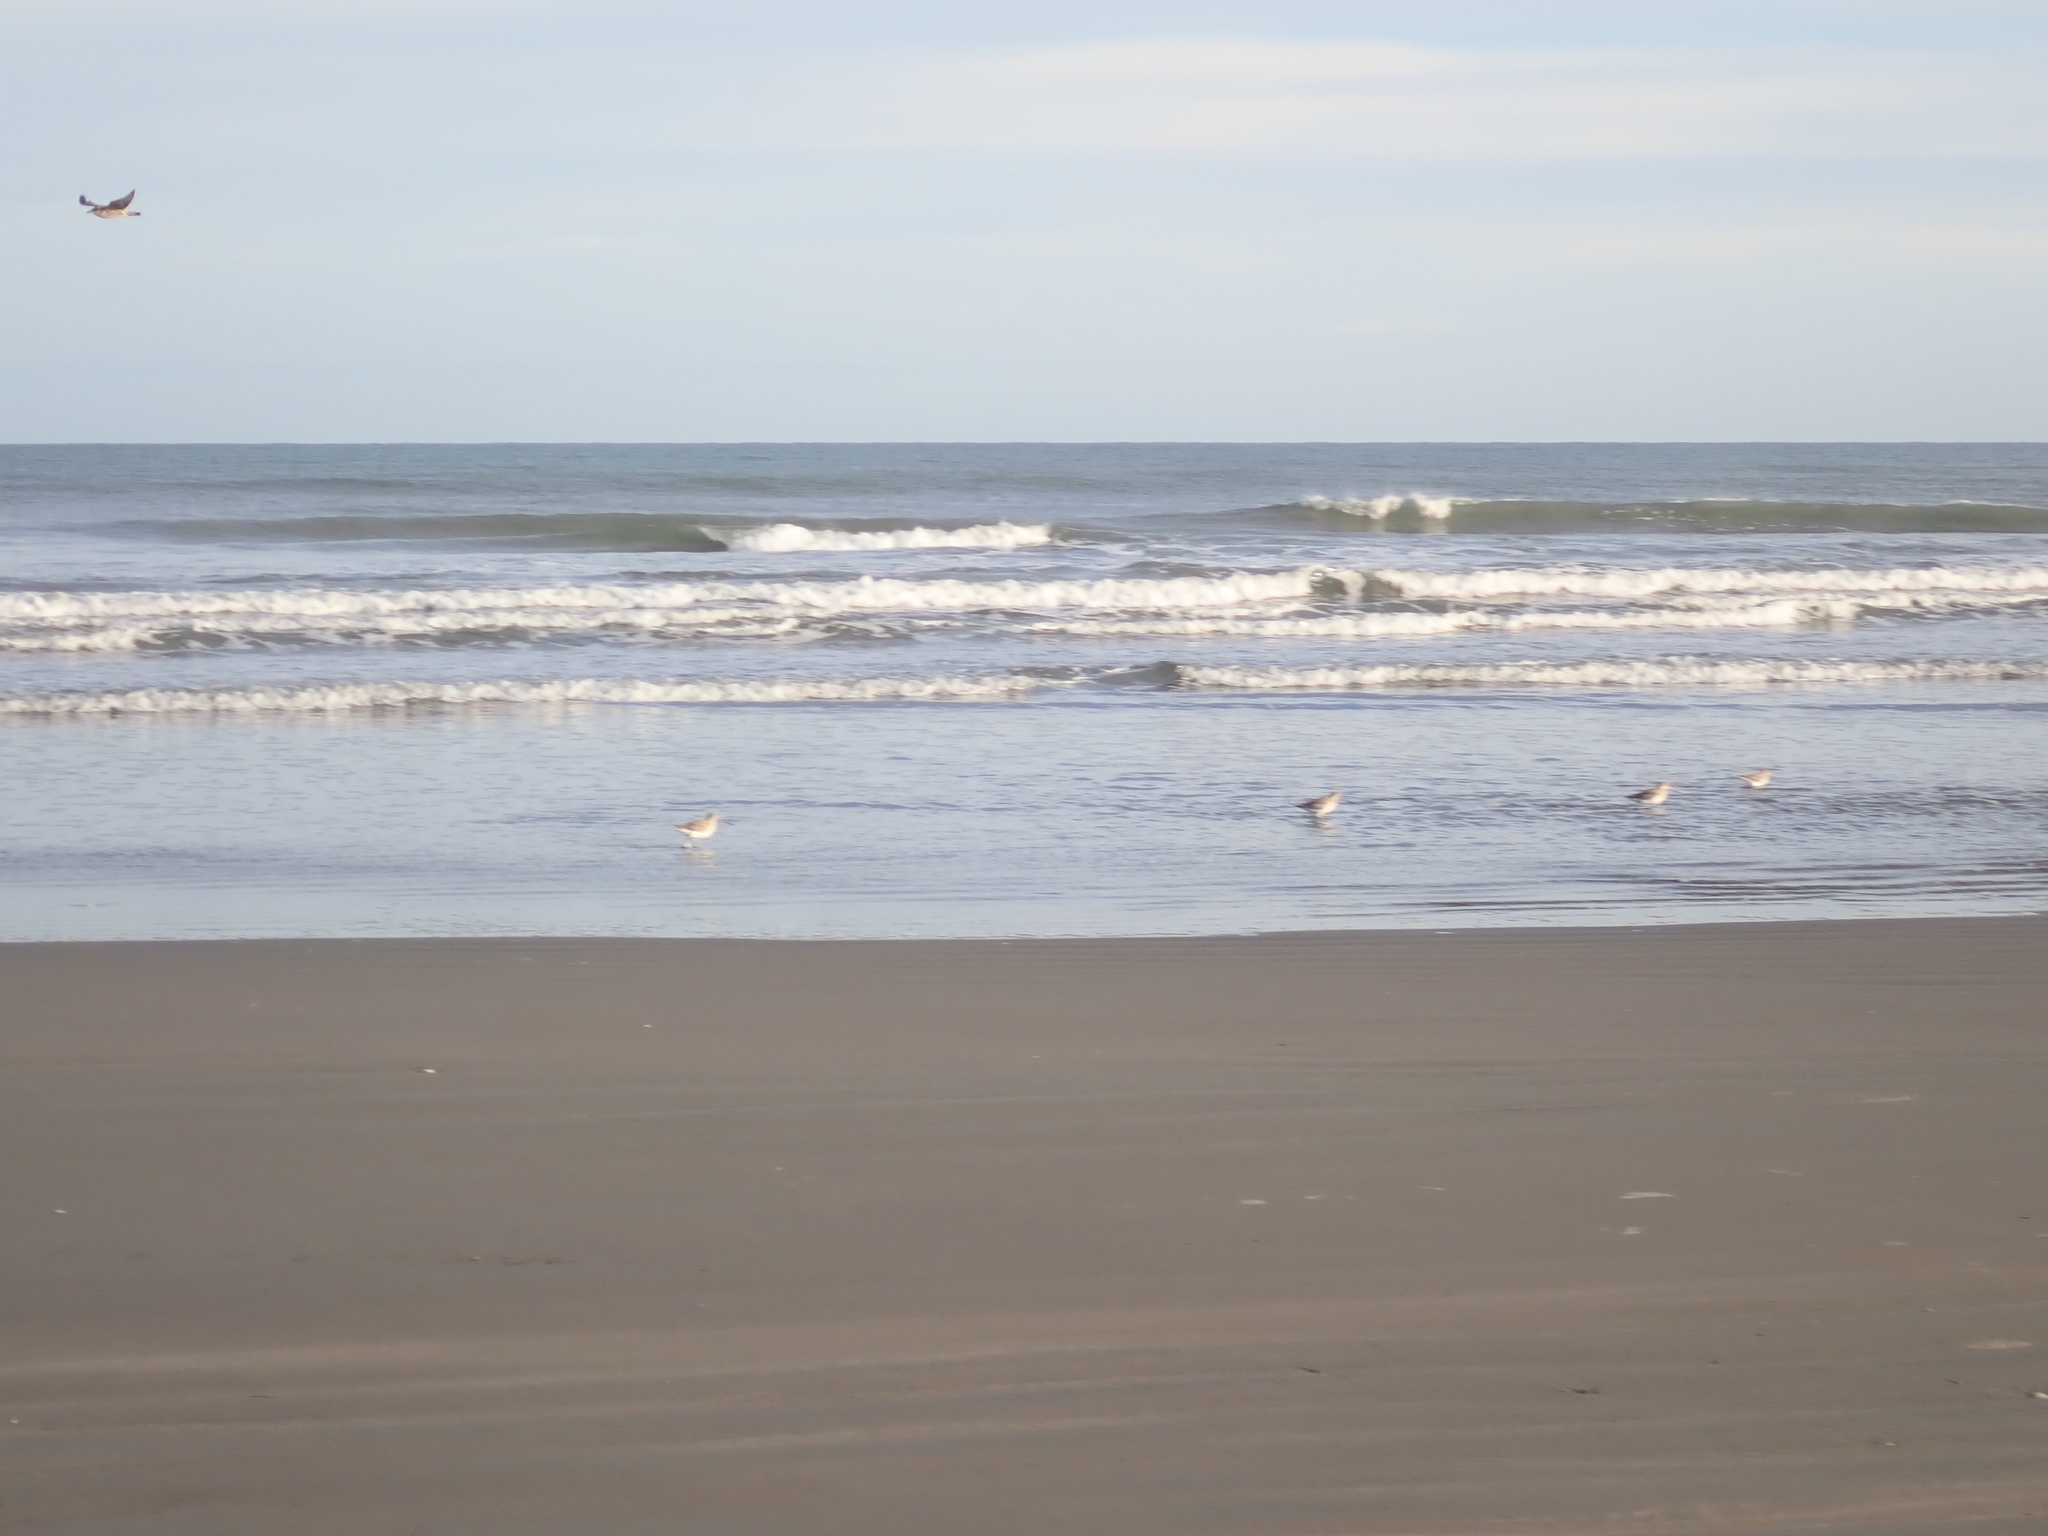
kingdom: Animalia
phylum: Chordata
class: Aves
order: Charadriiformes
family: Scolopacidae
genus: Limosa
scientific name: Limosa lapponica
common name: Bar-tailed godwit
